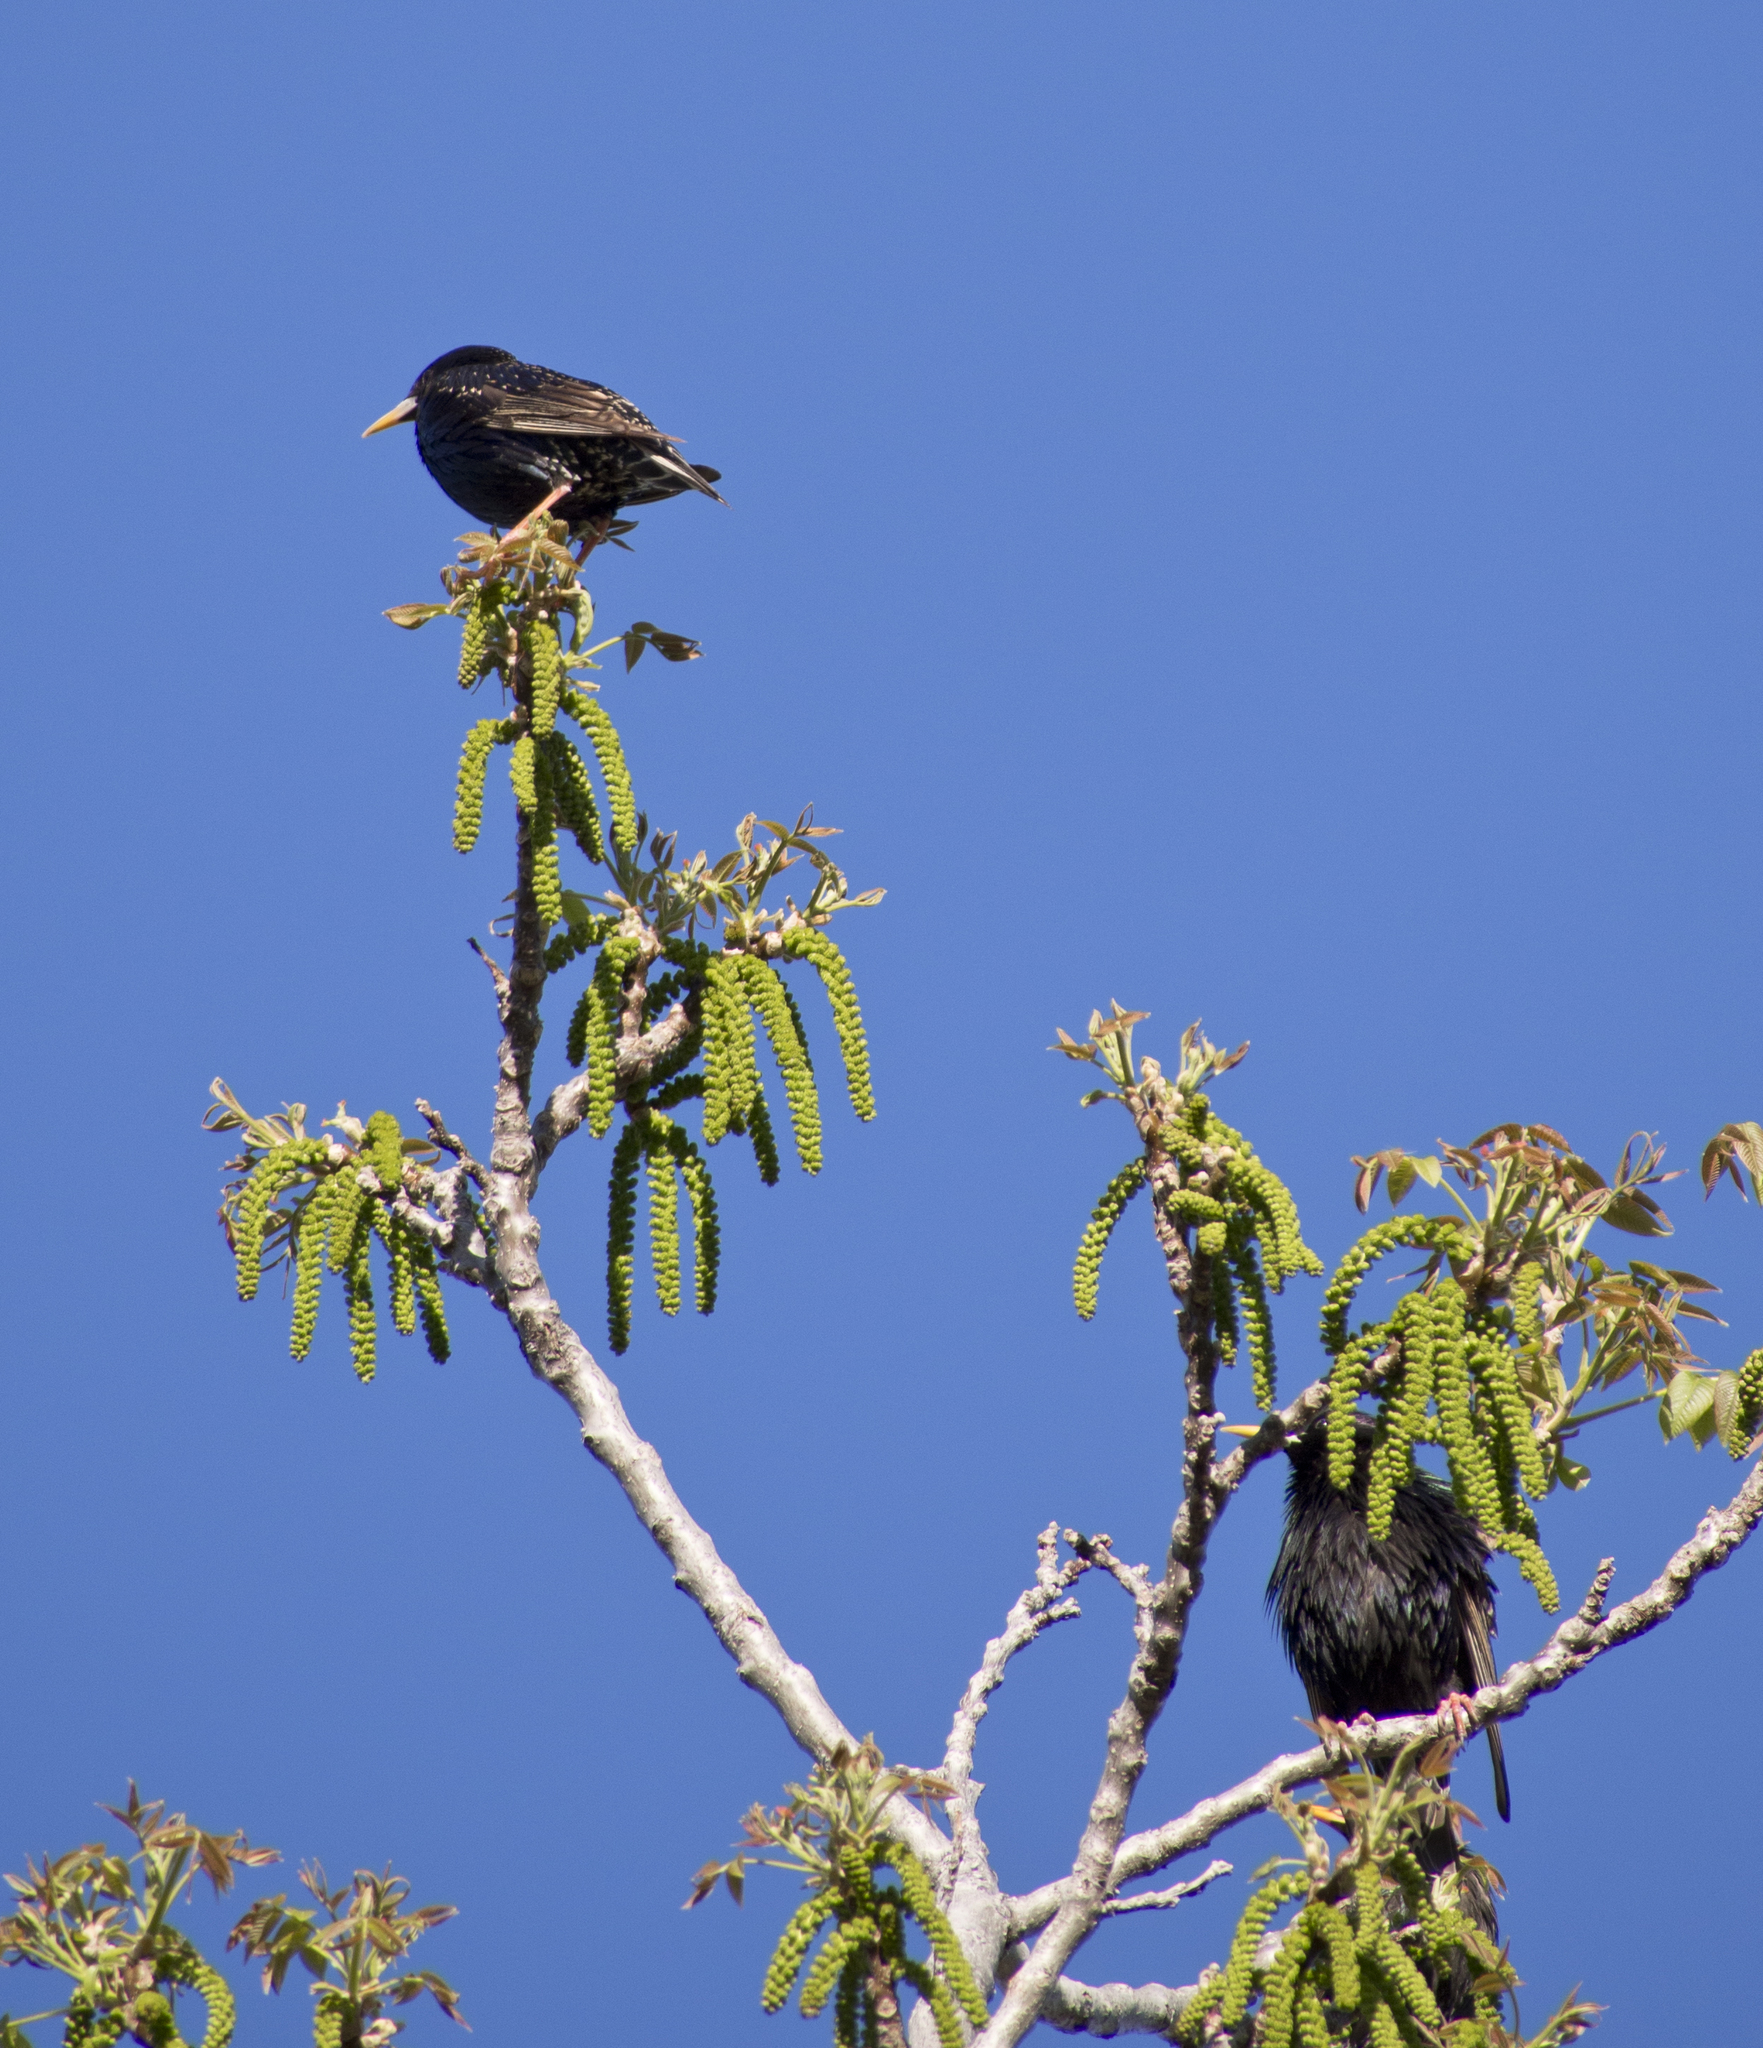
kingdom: Animalia
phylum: Chordata
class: Aves
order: Passeriformes
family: Sturnidae
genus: Sturnus
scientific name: Sturnus vulgaris
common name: Common starling
